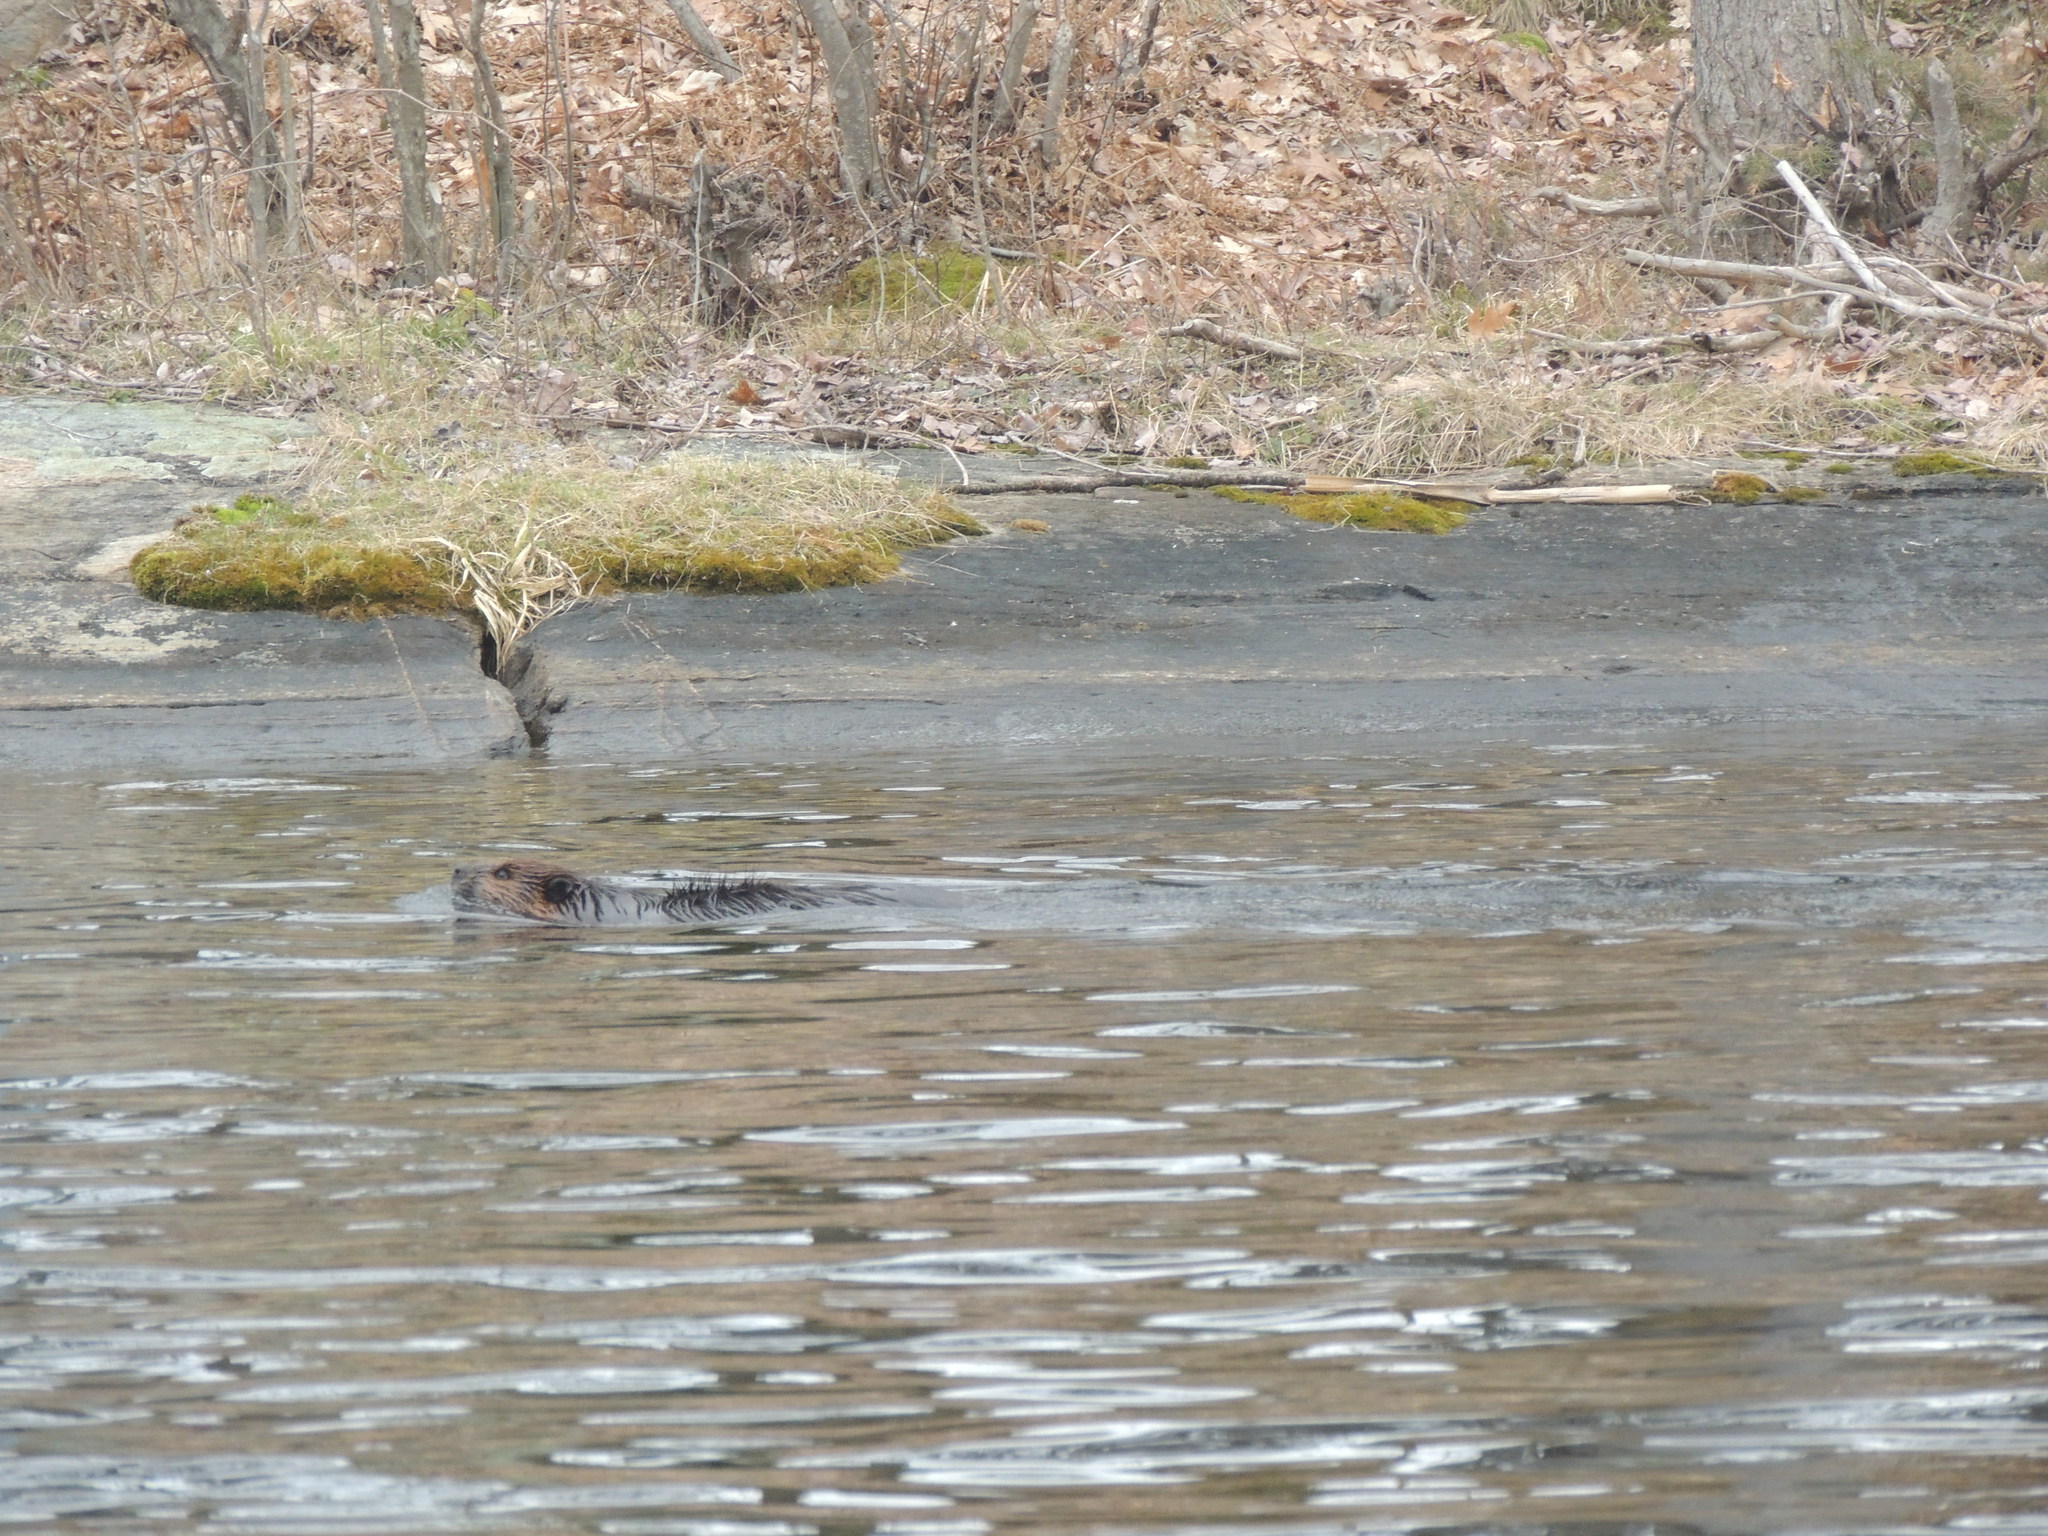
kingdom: Animalia
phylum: Chordata
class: Mammalia
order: Rodentia
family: Castoridae
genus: Castor
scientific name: Castor canadensis
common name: American beaver
